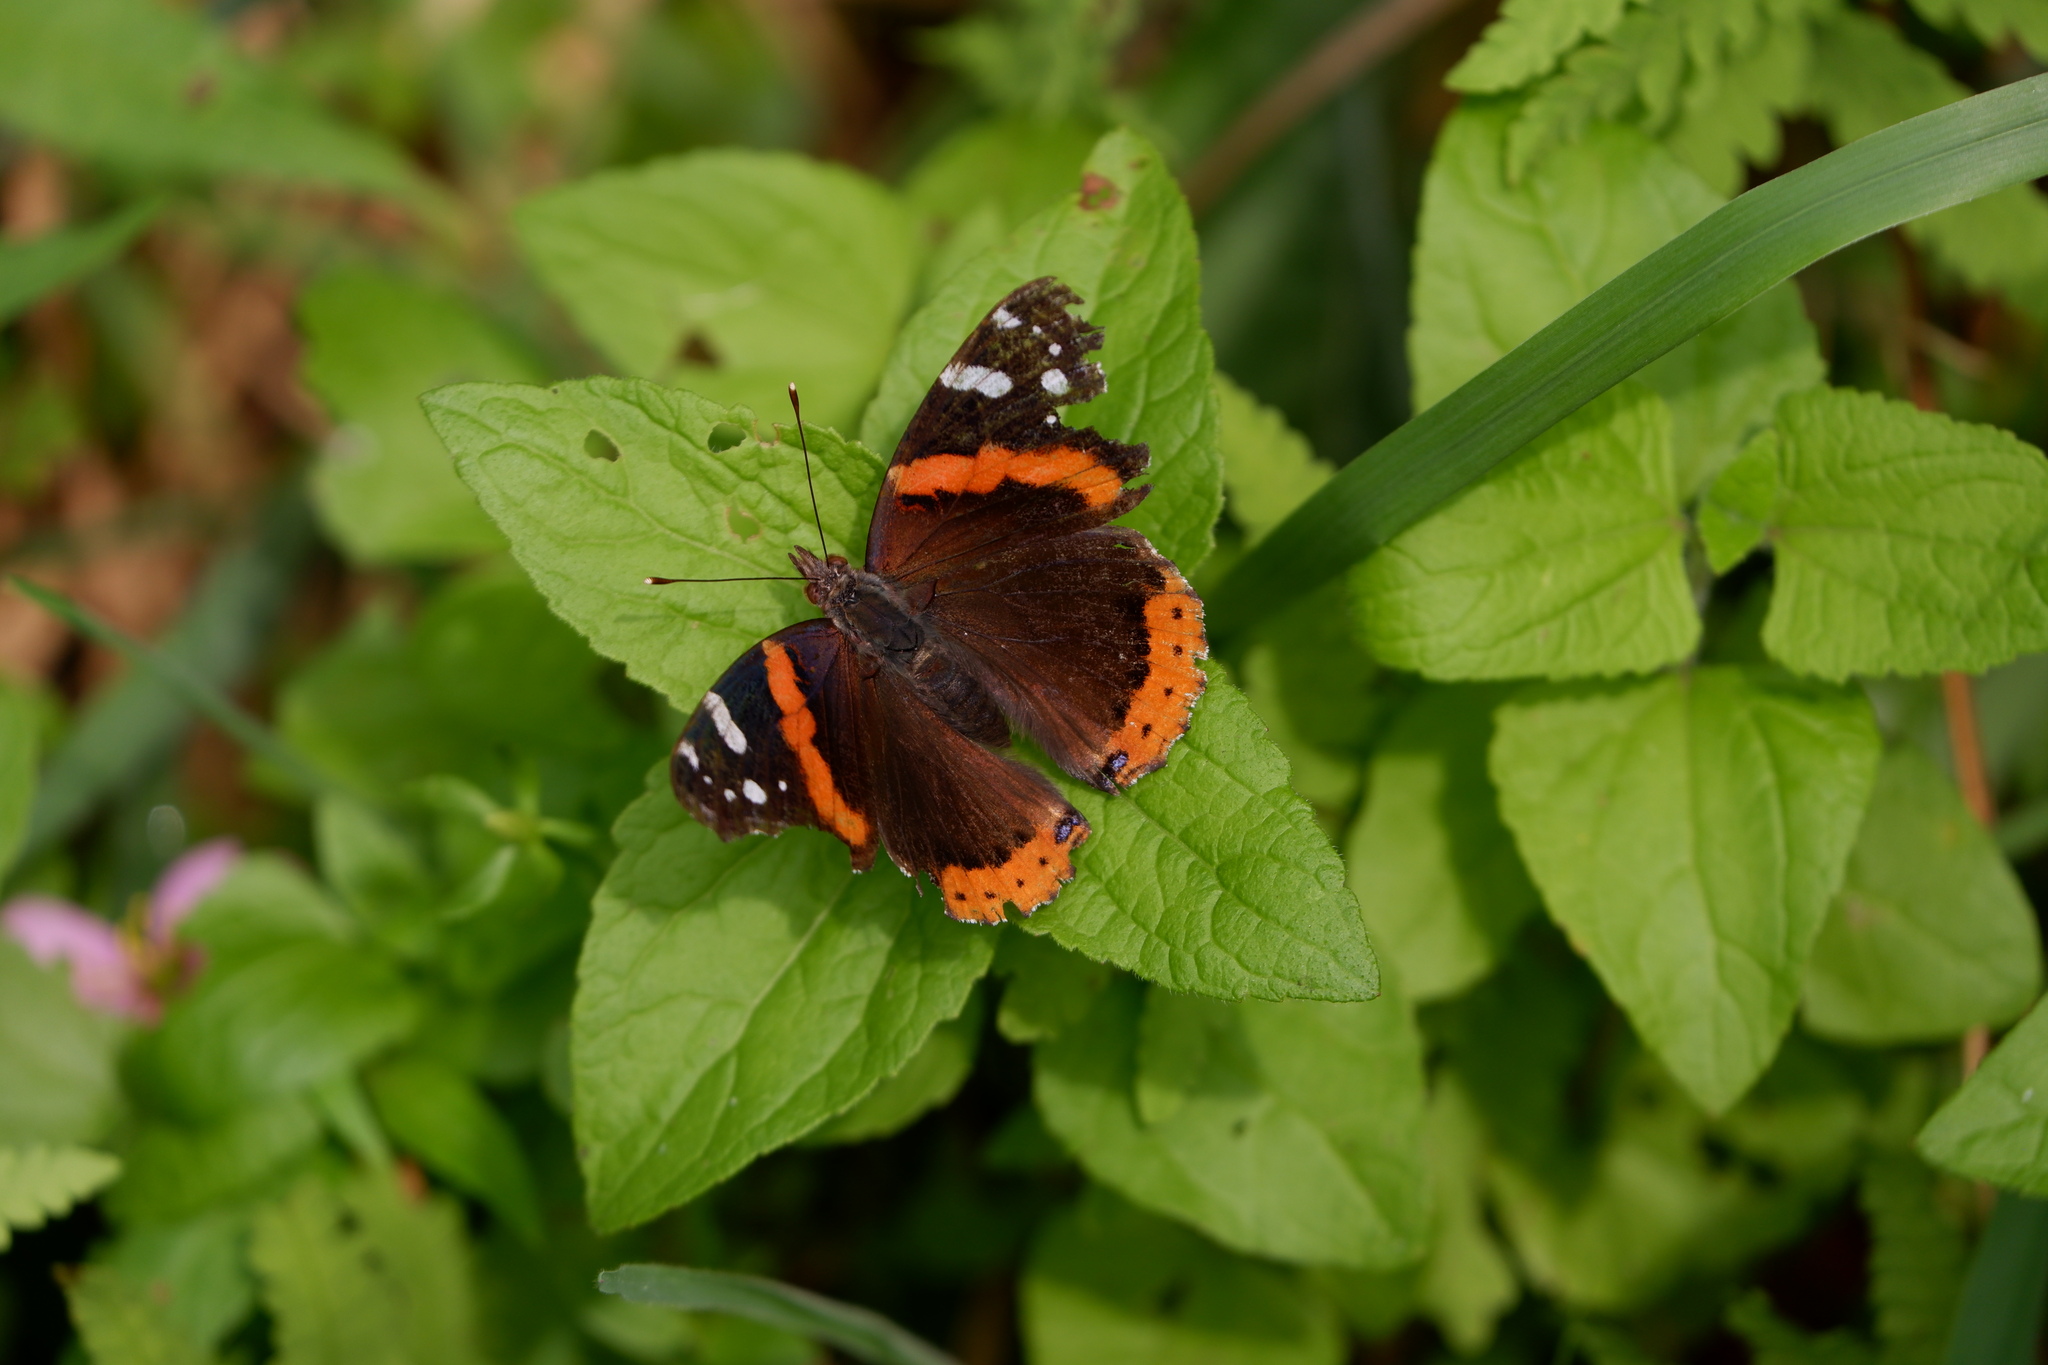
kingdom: Animalia
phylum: Arthropoda
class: Insecta
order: Lepidoptera
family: Nymphalidae
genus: Vanessa
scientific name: Vanessa atalanta
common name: Red admiral
